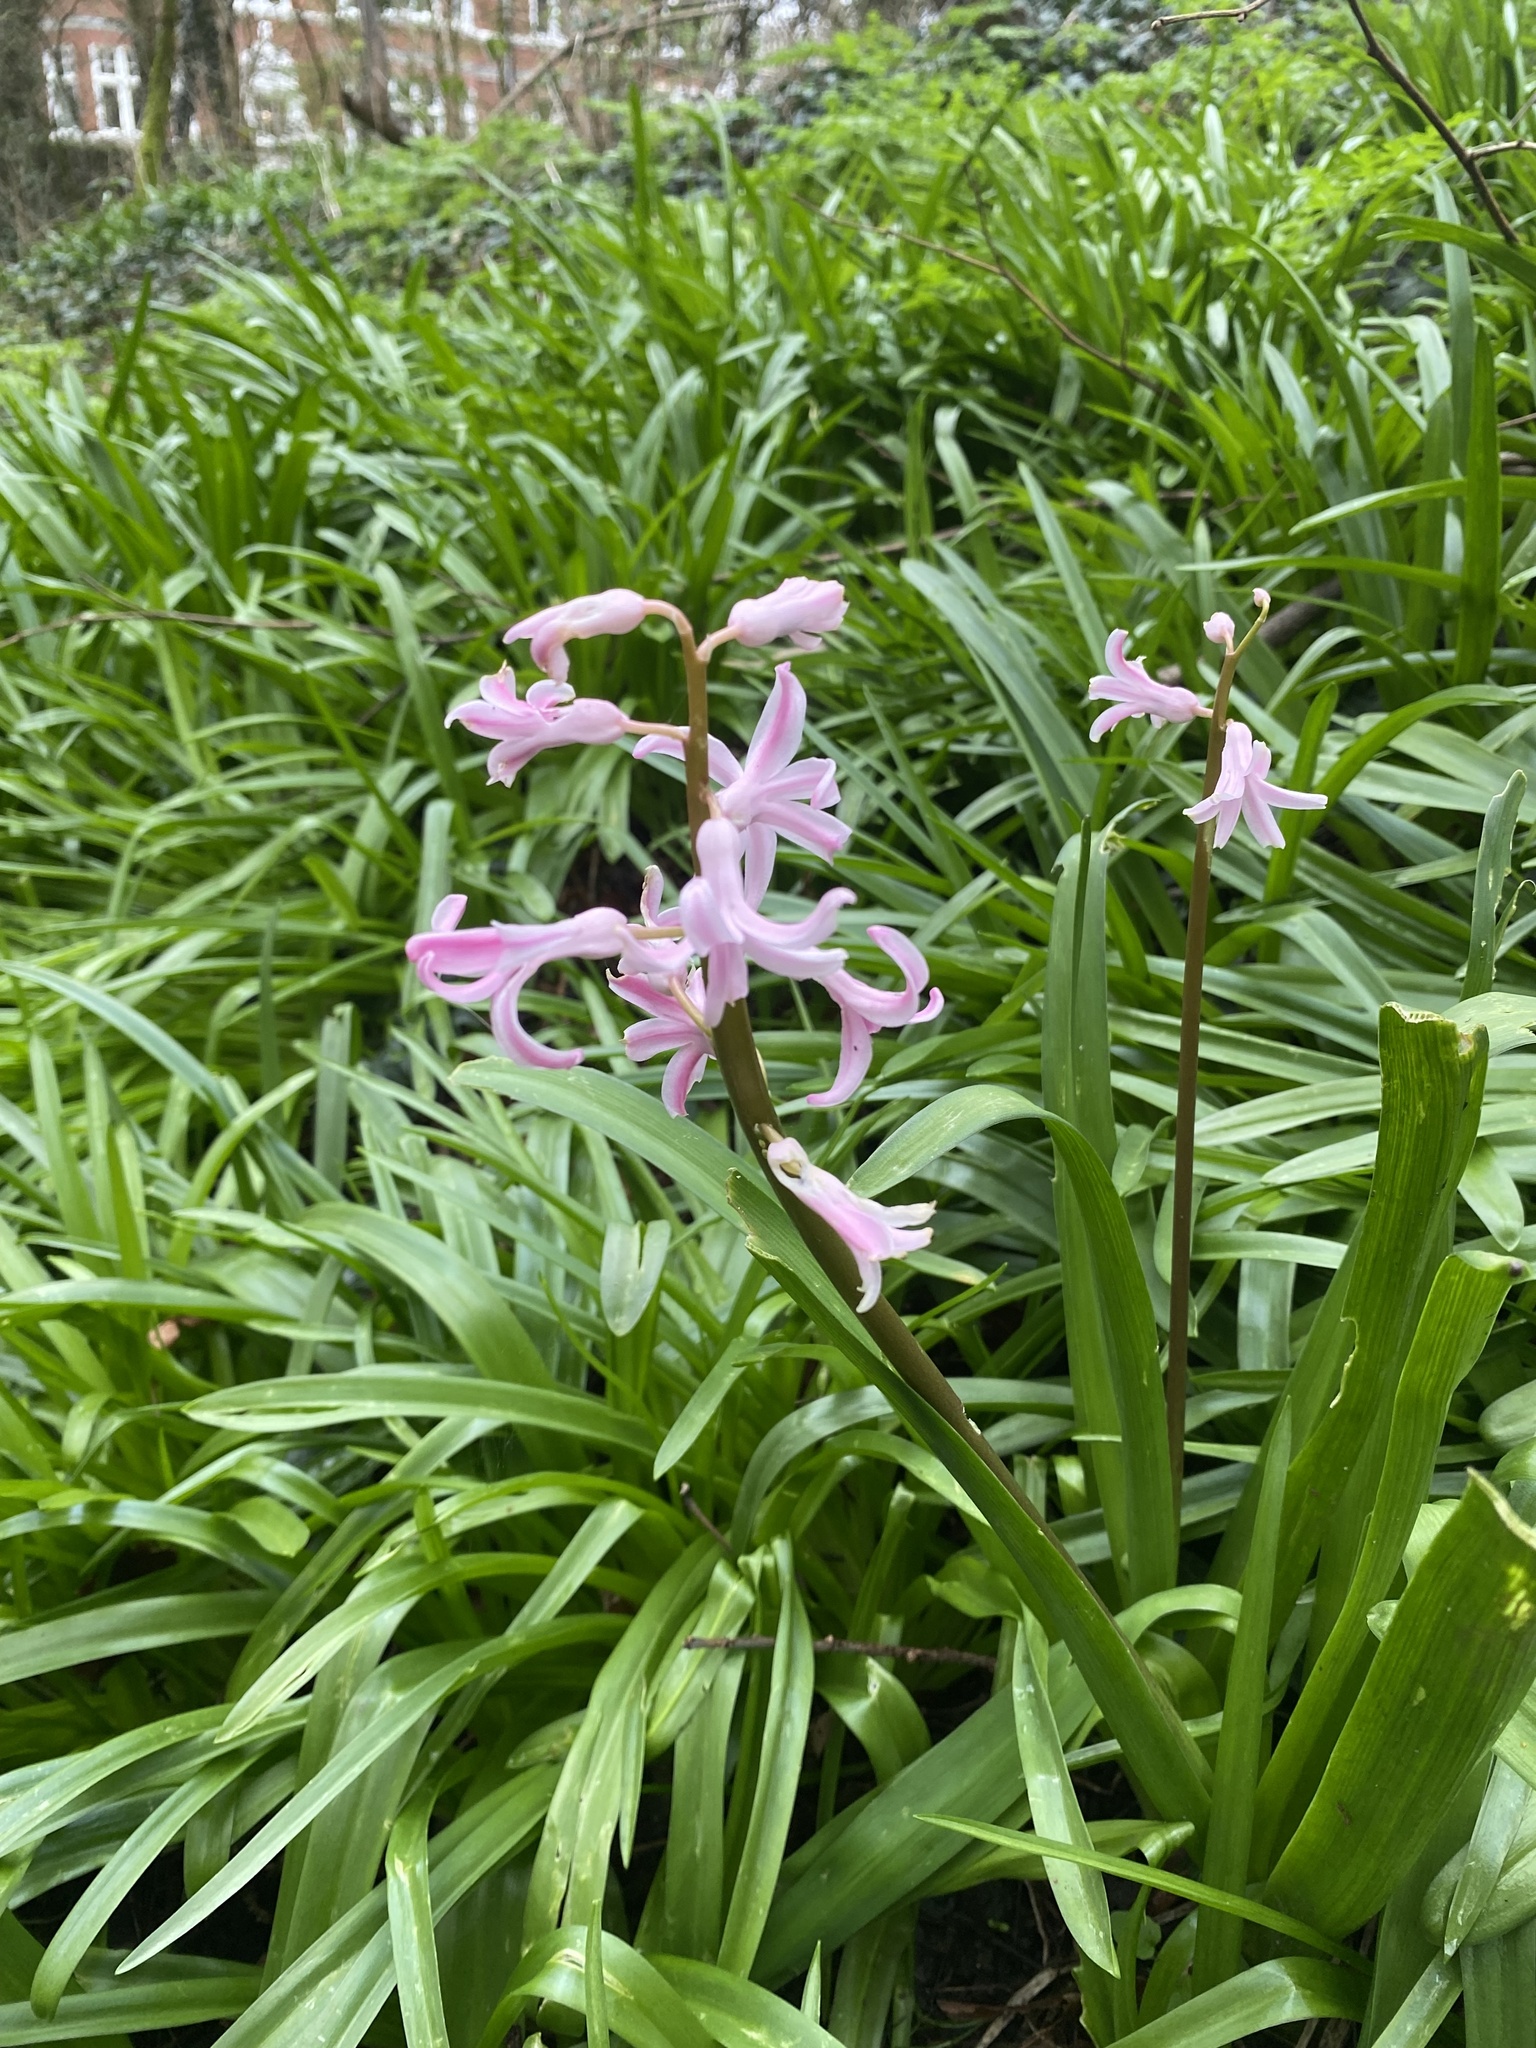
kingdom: Plantae
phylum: Tracheophyta
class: Liliopsida
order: Asparagales
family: Asparagaceae
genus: Hyacinthus
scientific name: Hyacinthus orientalis
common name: Hyacinth
